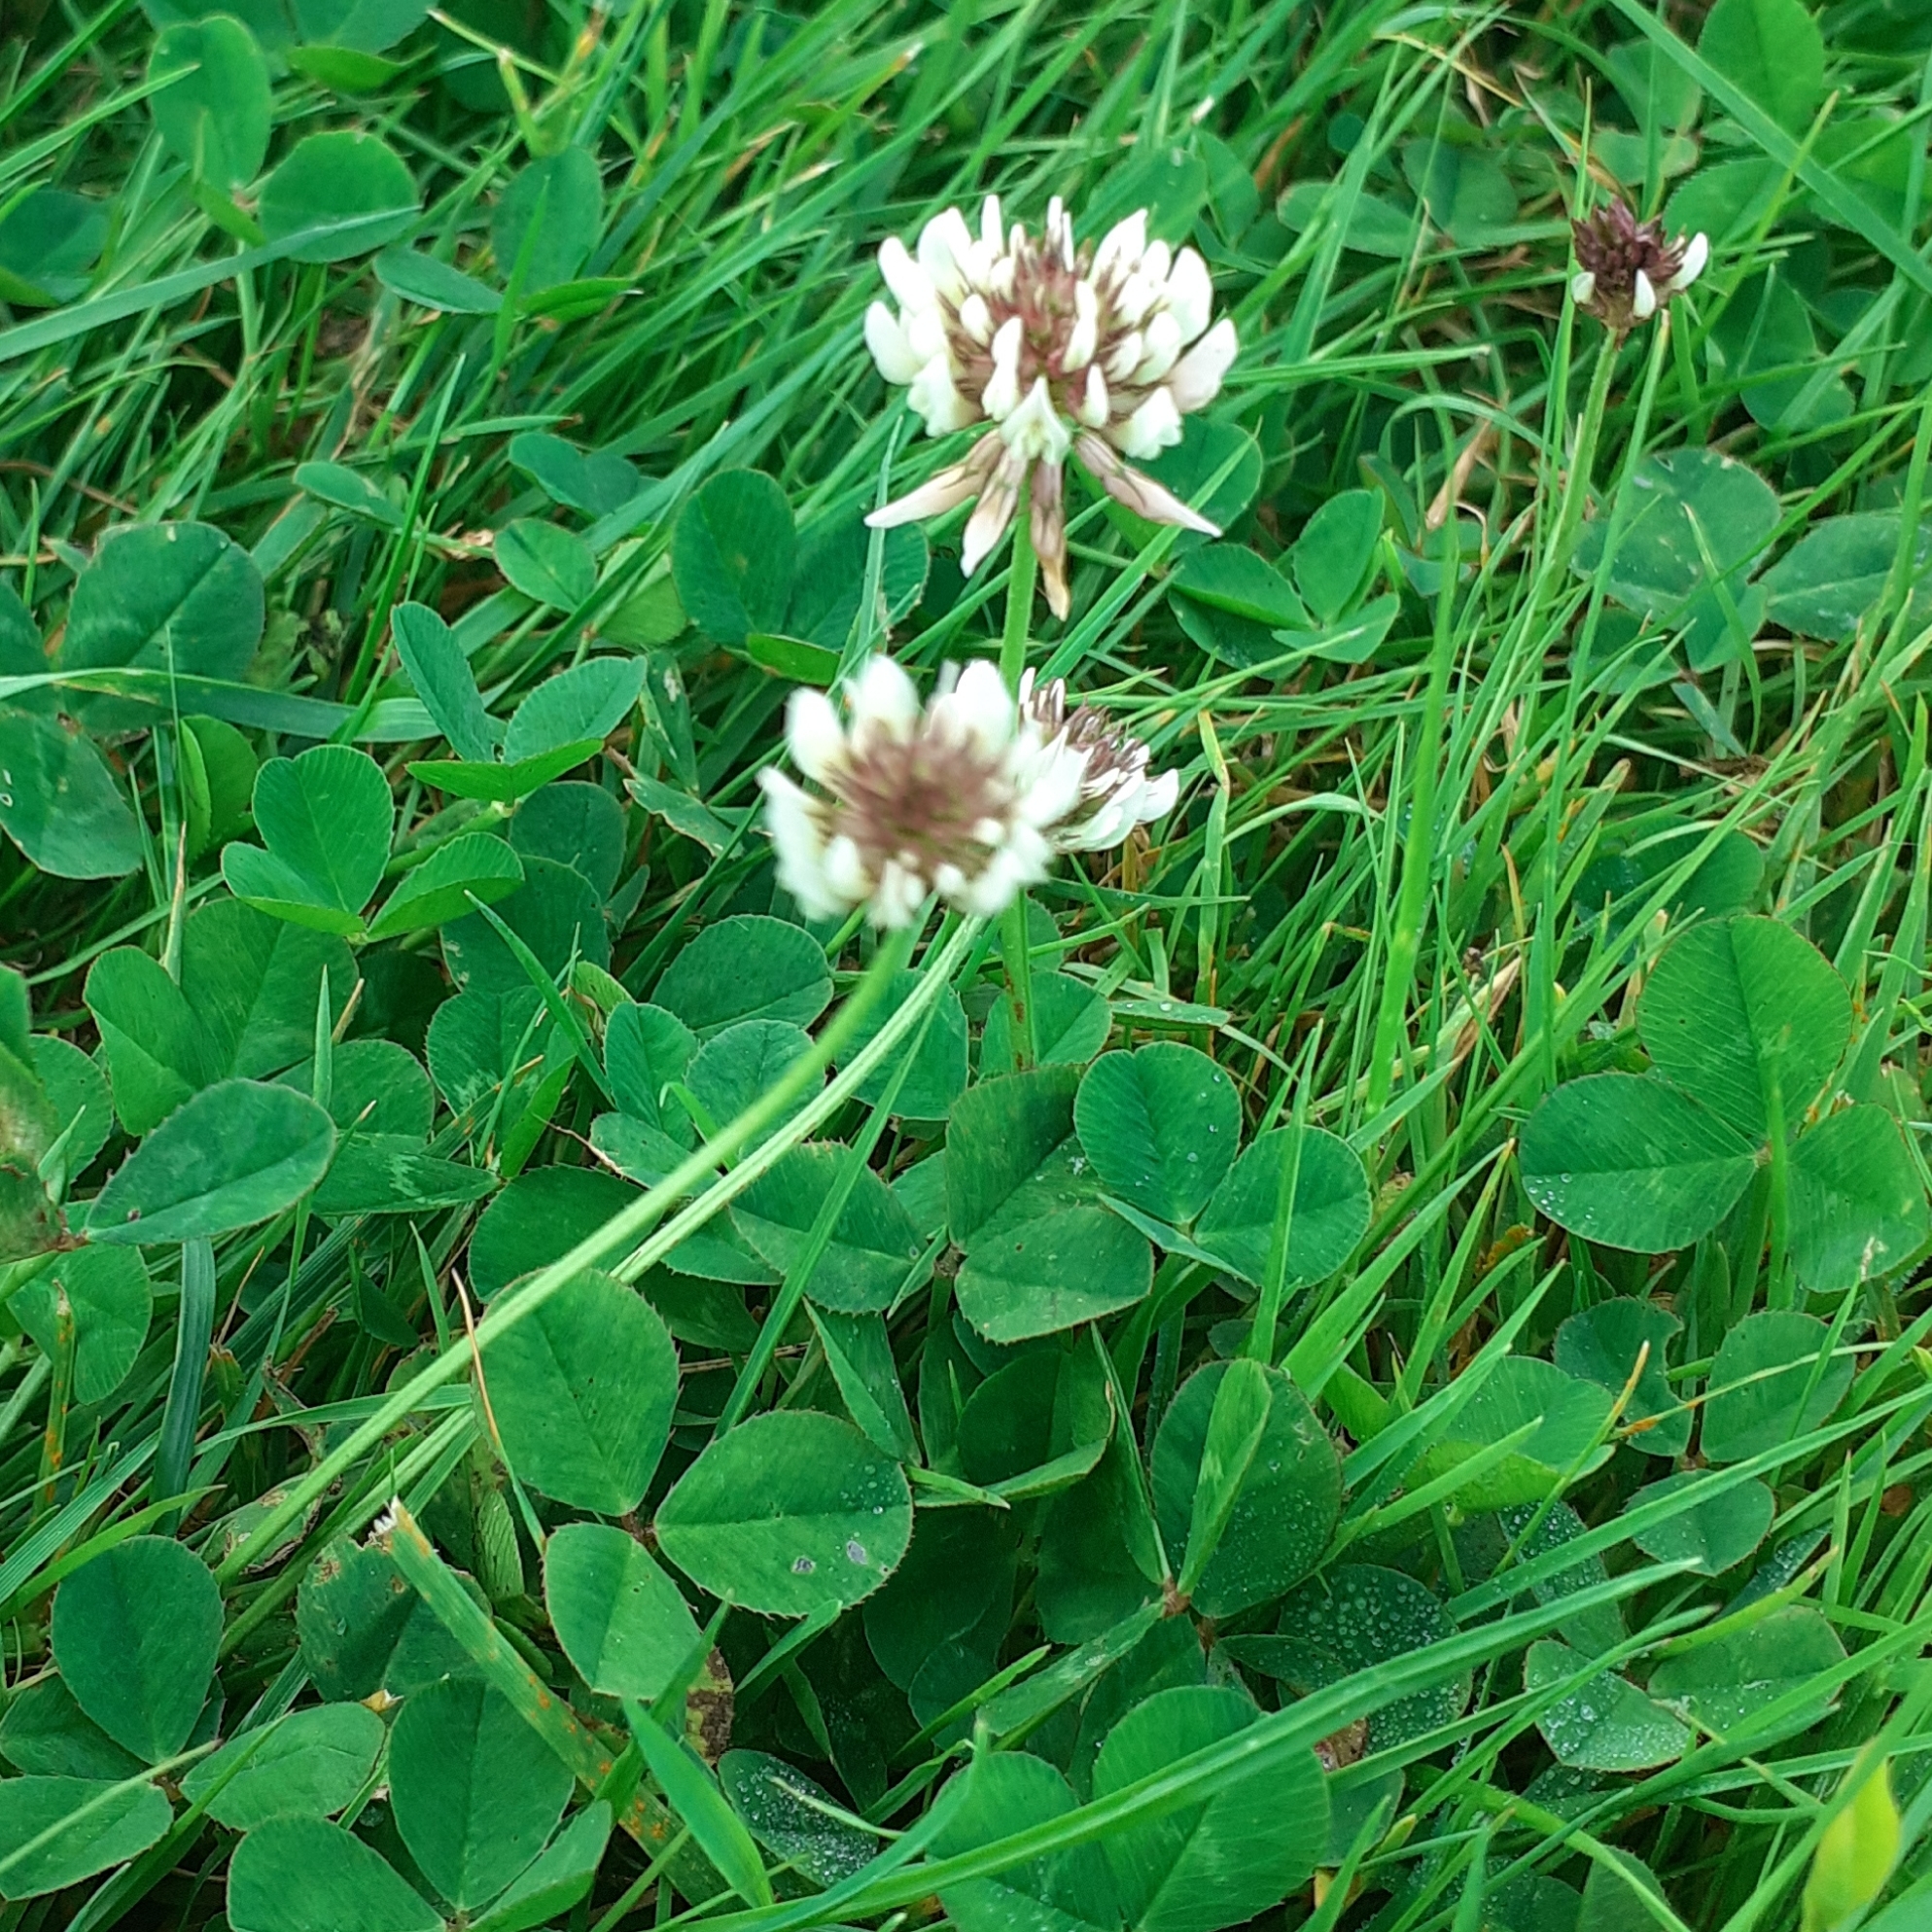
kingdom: Plantae
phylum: Tracheophyta
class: Magnoliopsida
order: Fabales
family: Fabaceae
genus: Trifolium
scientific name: Trifolium repens
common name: White clover
